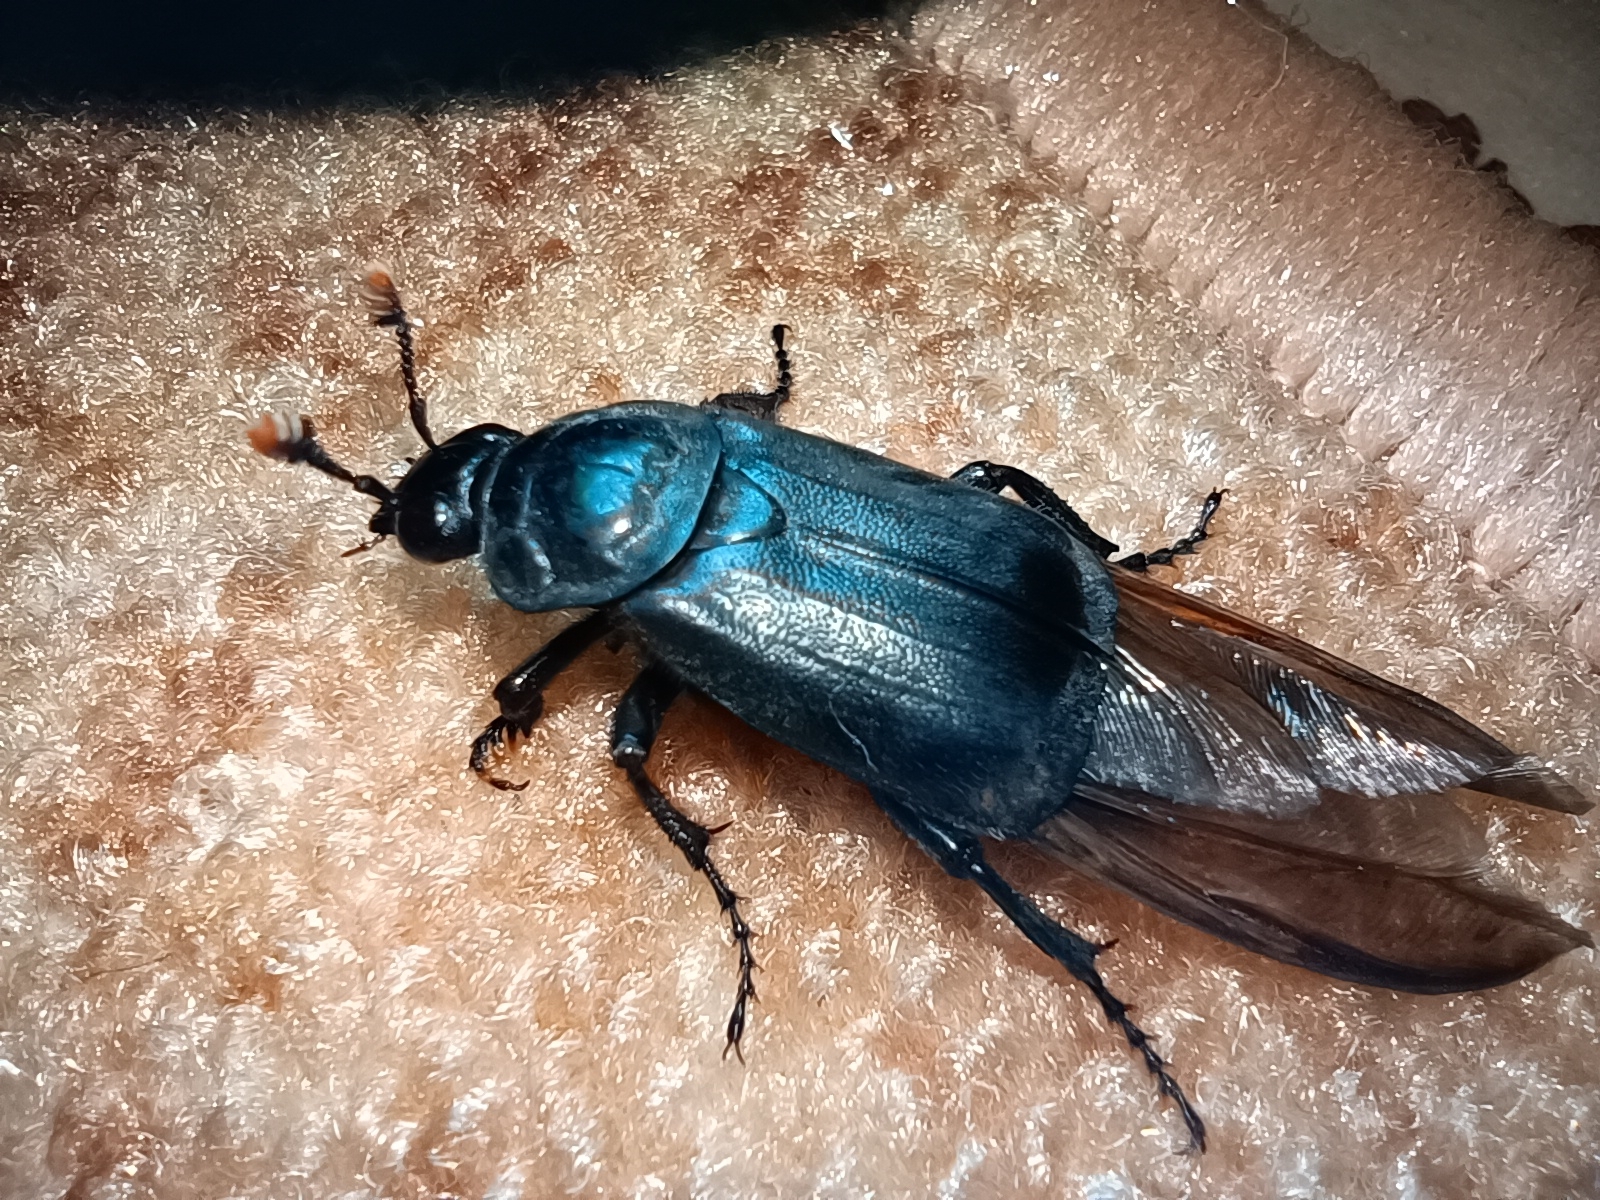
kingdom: Animalia
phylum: Arthropoda
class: Insecta
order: Coleoptera
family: Staphylinidae
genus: Nicrophorus
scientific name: Nicrophorus humator
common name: Black sexton beetle
